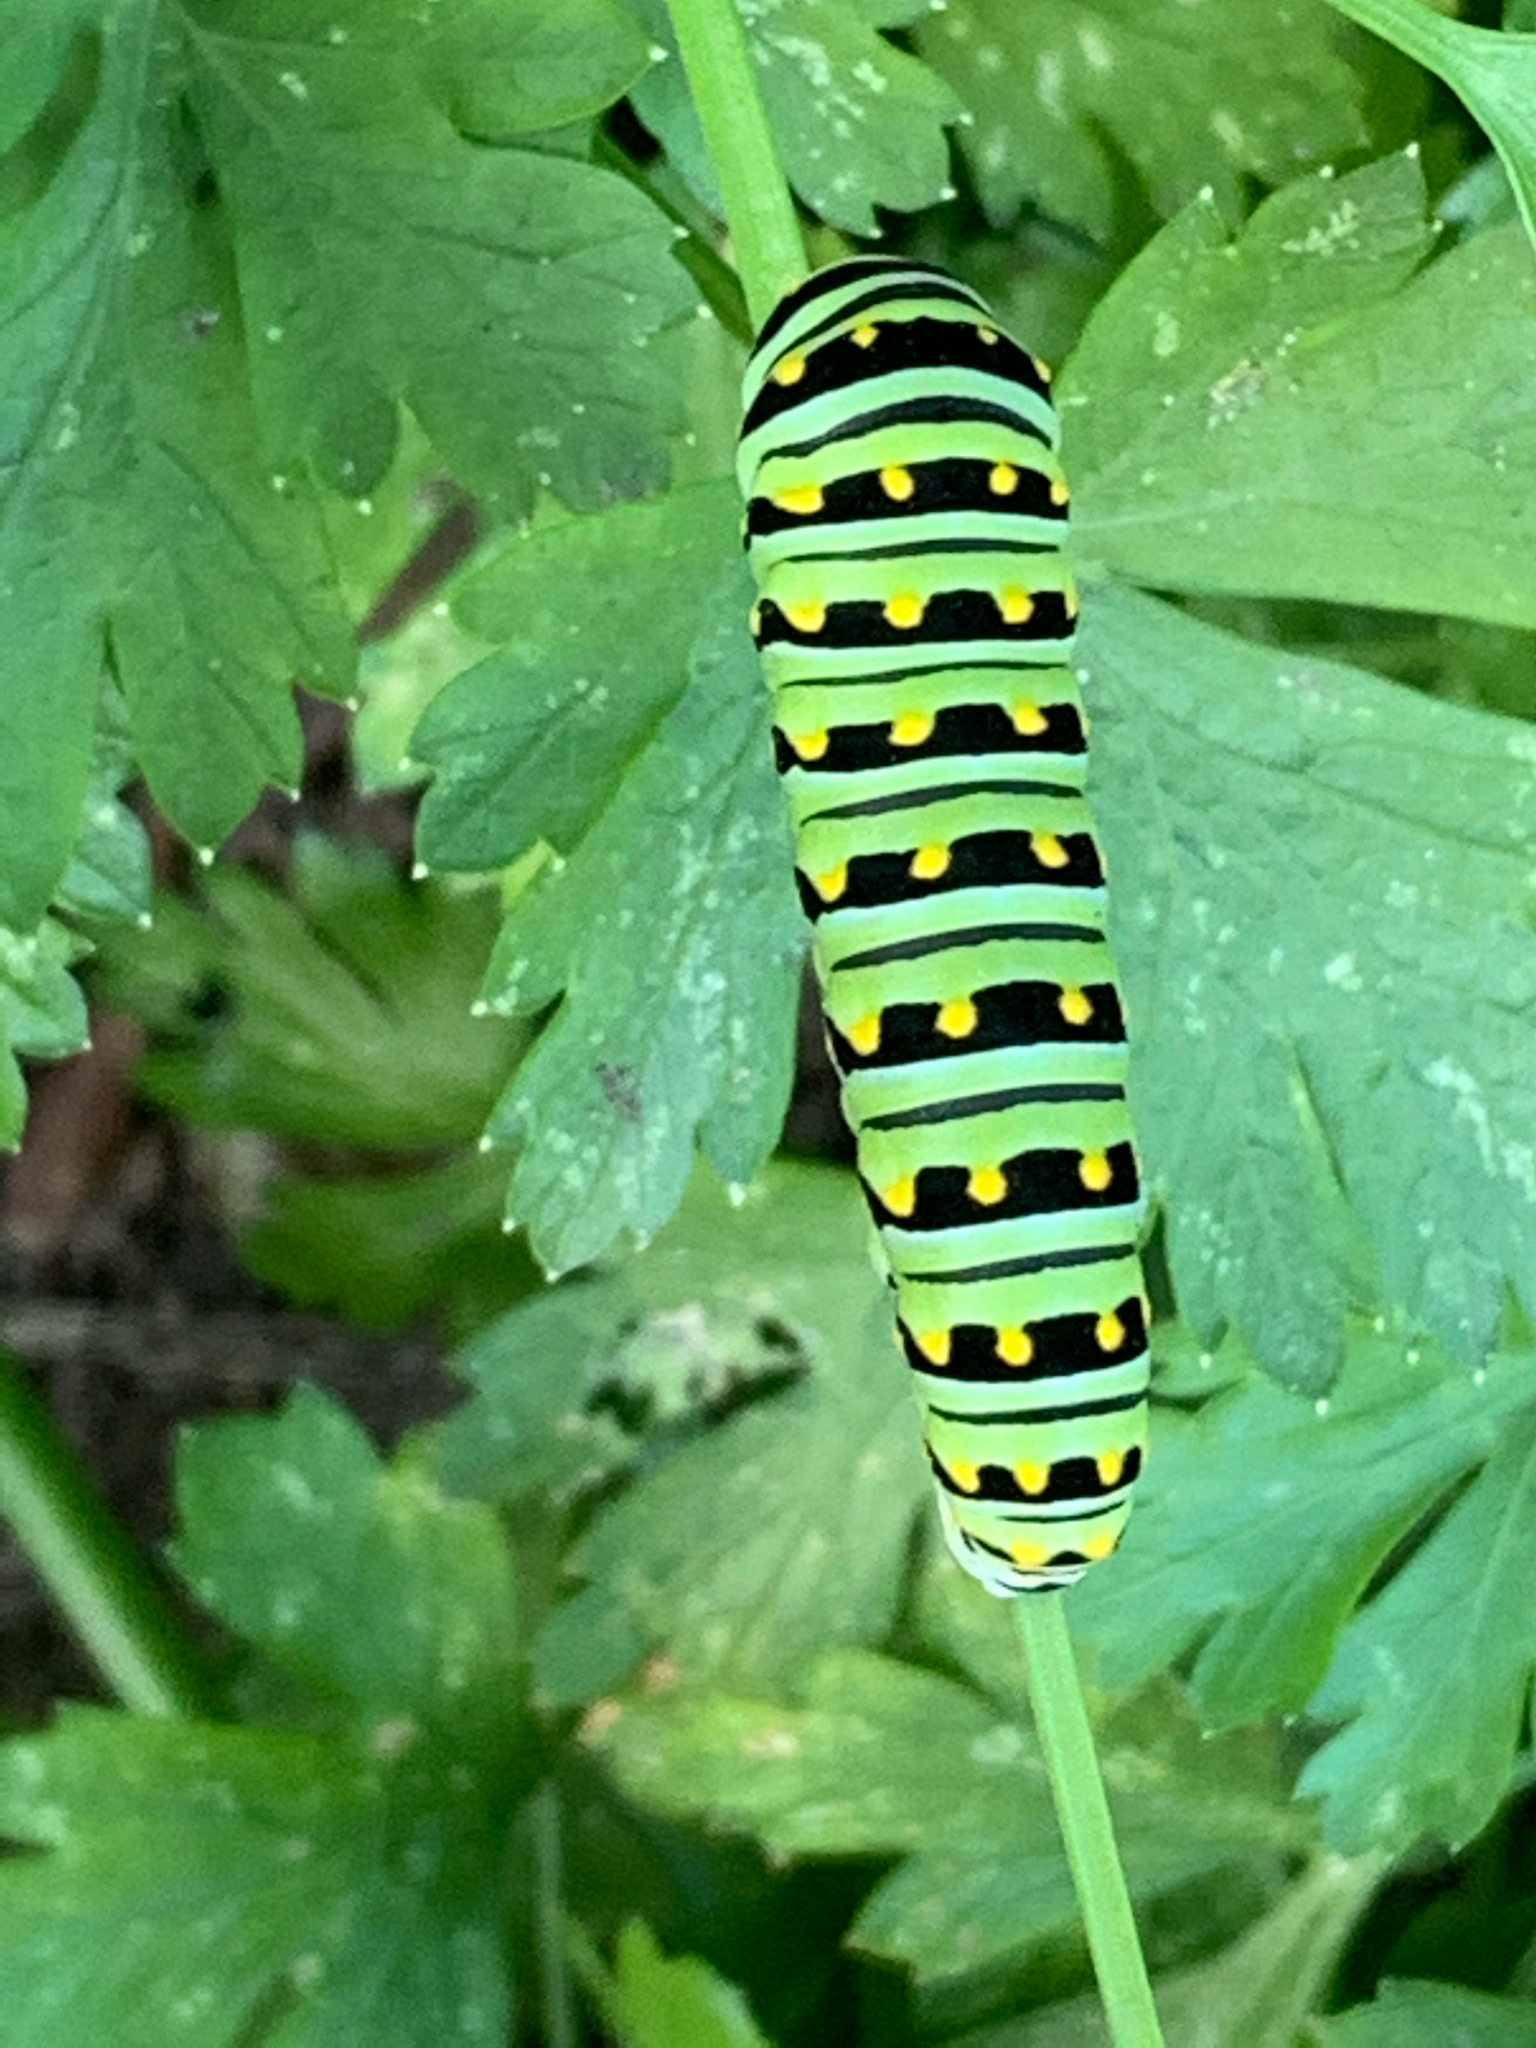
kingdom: Animalia
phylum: Arthropoda
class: Insecta
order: Lepidoptera
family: Papilionidae
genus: Papilio
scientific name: Papilio polyxenes
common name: Black swallowtail
